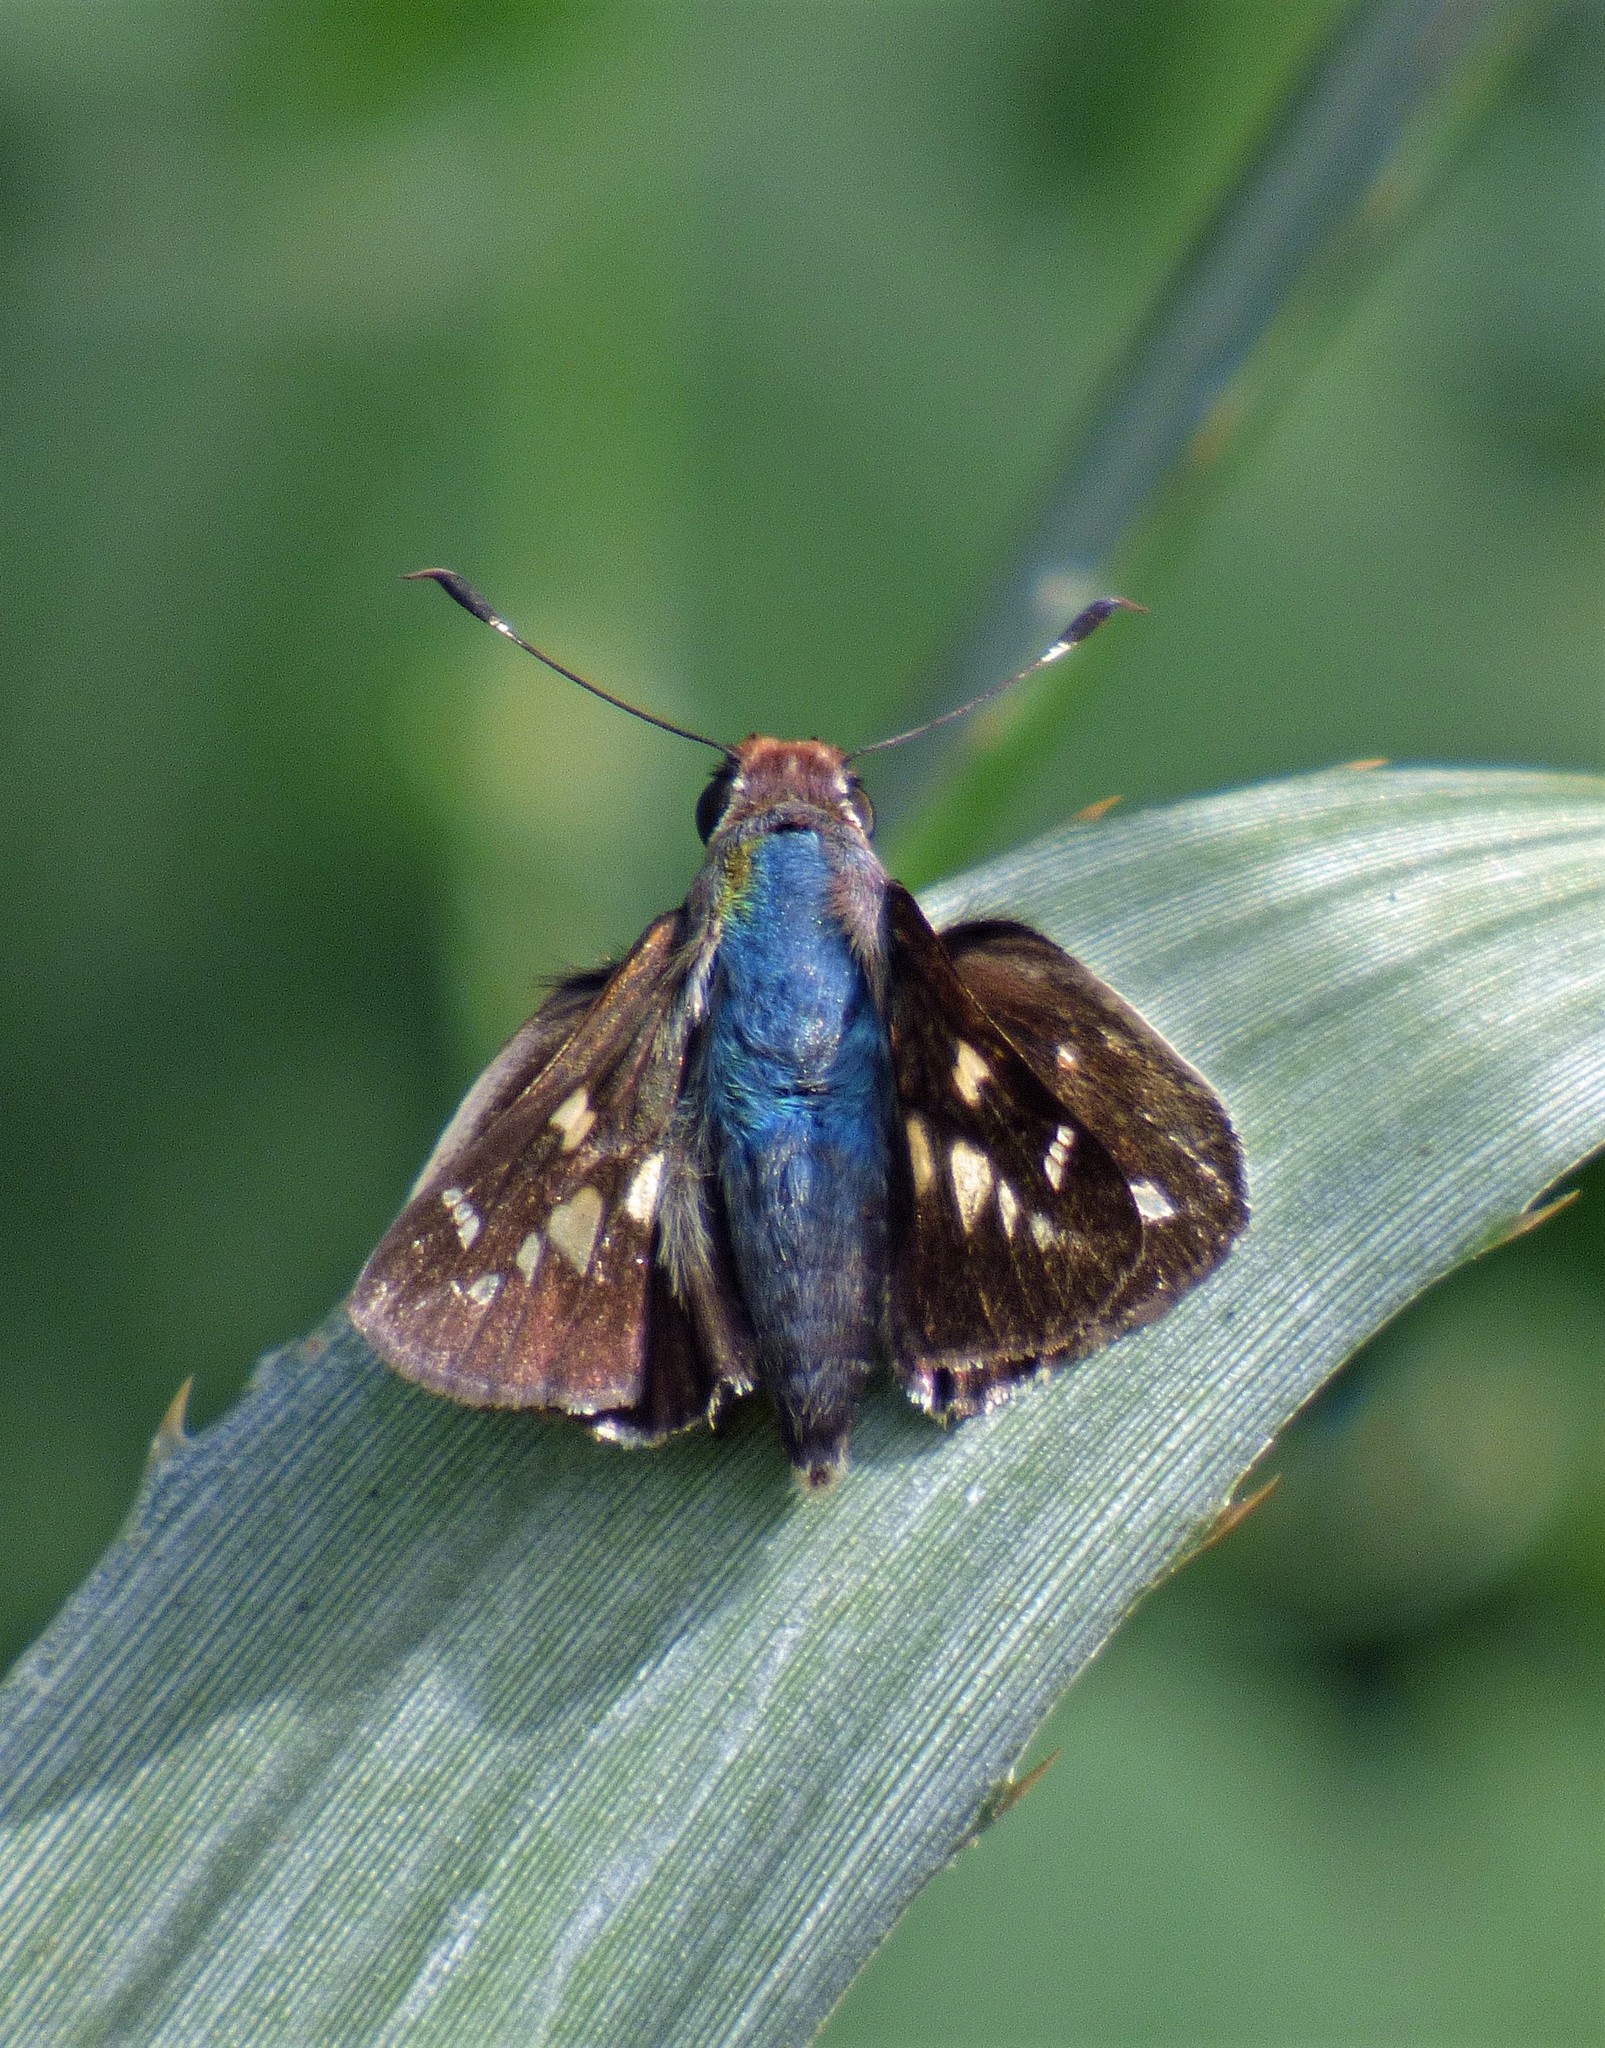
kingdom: Animalia
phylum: Arthropoda
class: Insecta
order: Lepidoptera
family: Hesperiidae
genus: Thespieus
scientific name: Thespieus xarippe
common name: Xarippe skipper
